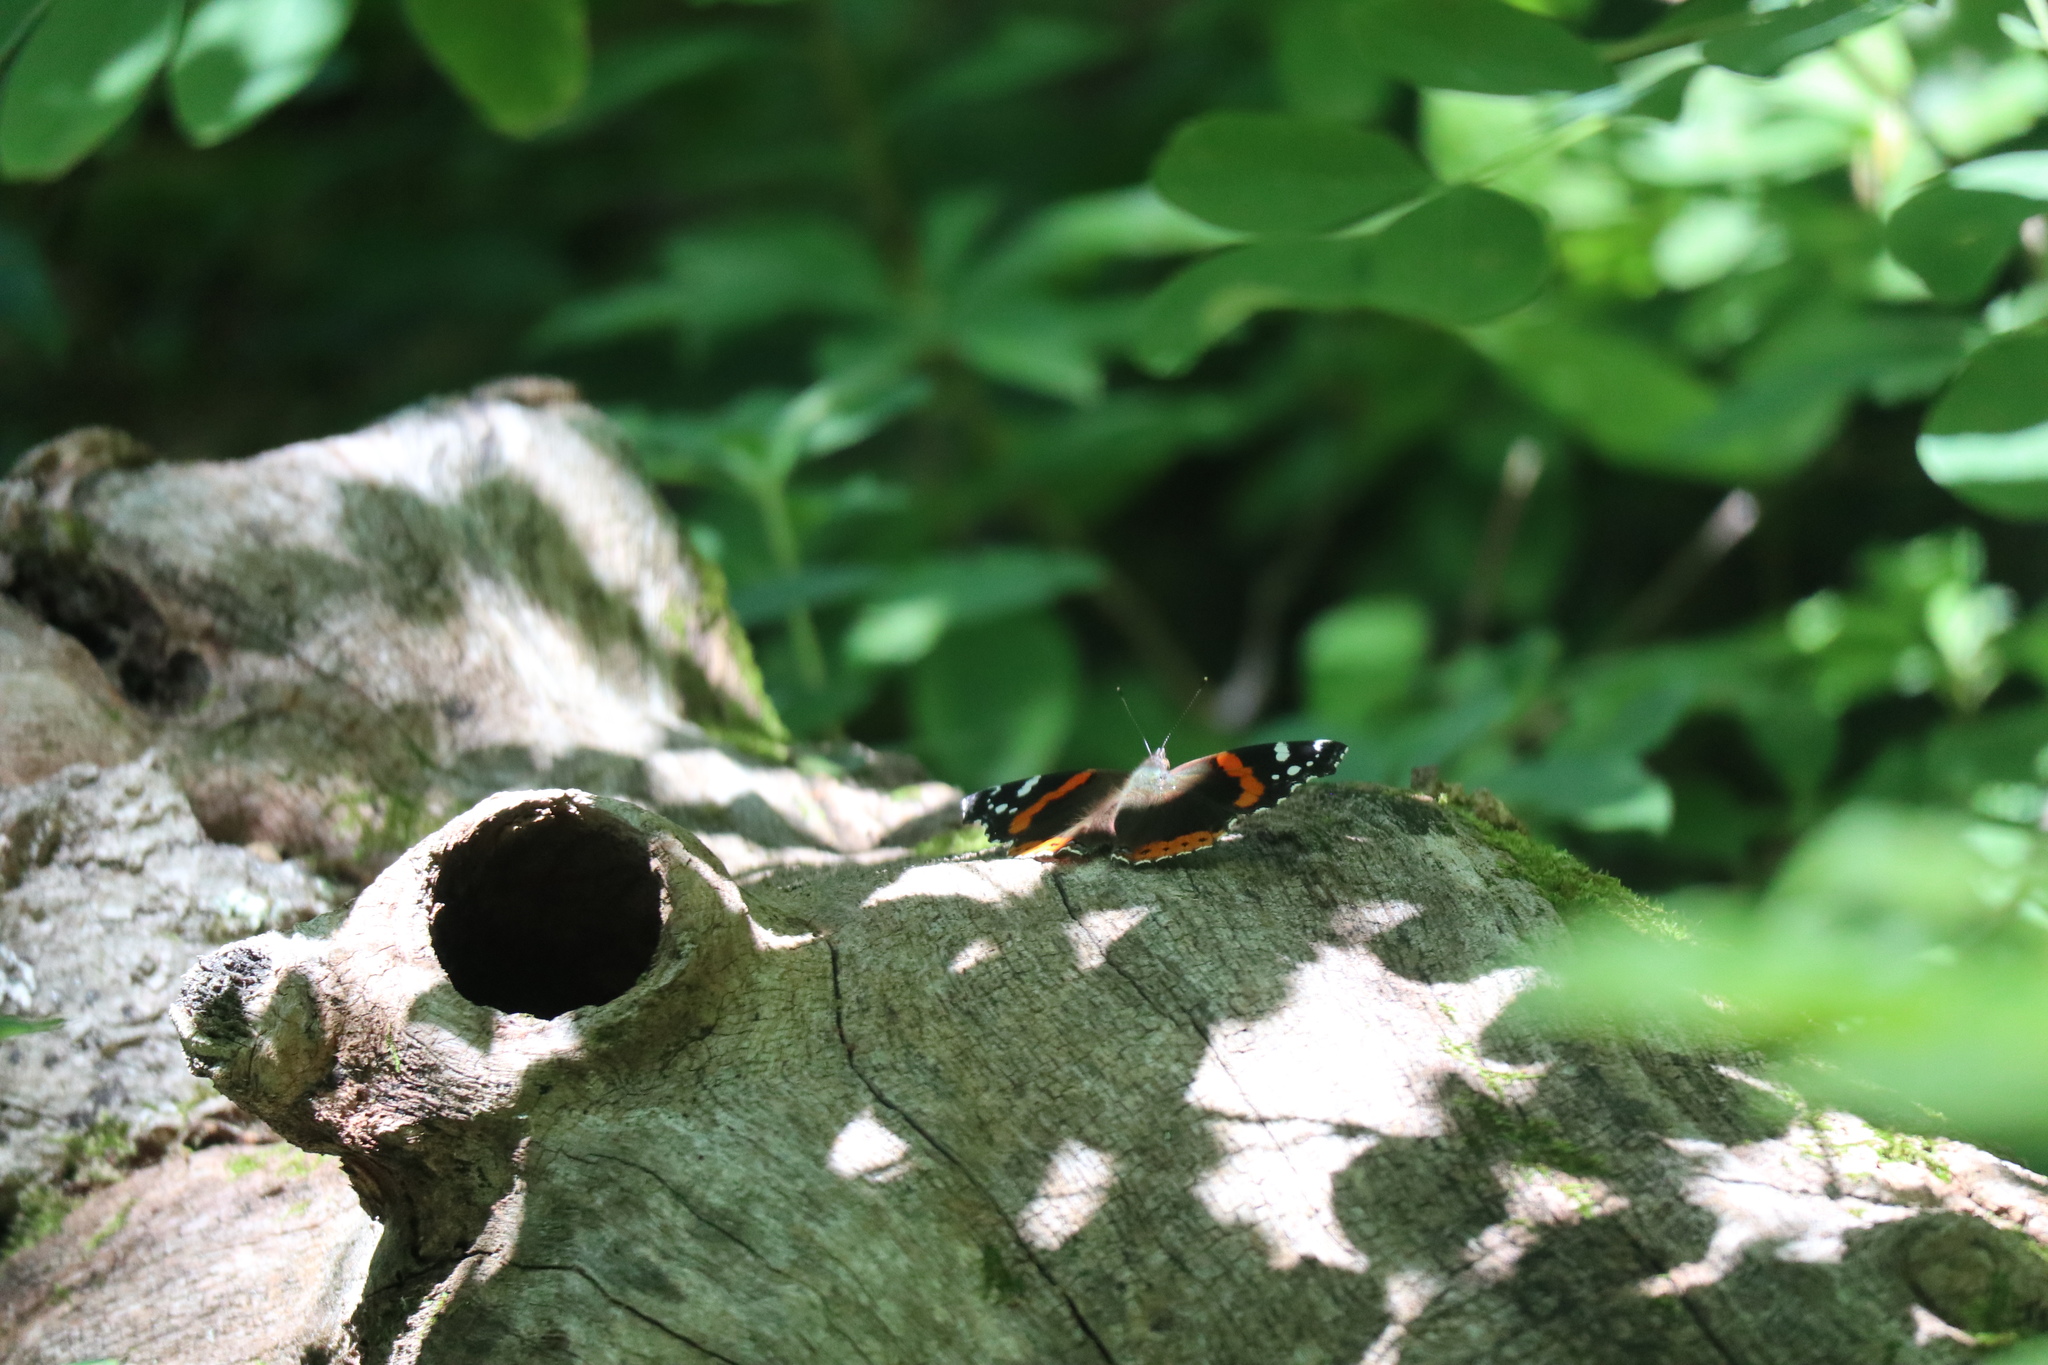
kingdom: Animalia
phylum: Arthropoda
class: Insecta
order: Lepidoptera
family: Nymphalidae
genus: Vanessa
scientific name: Vanessa atalanta
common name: Red admiral
